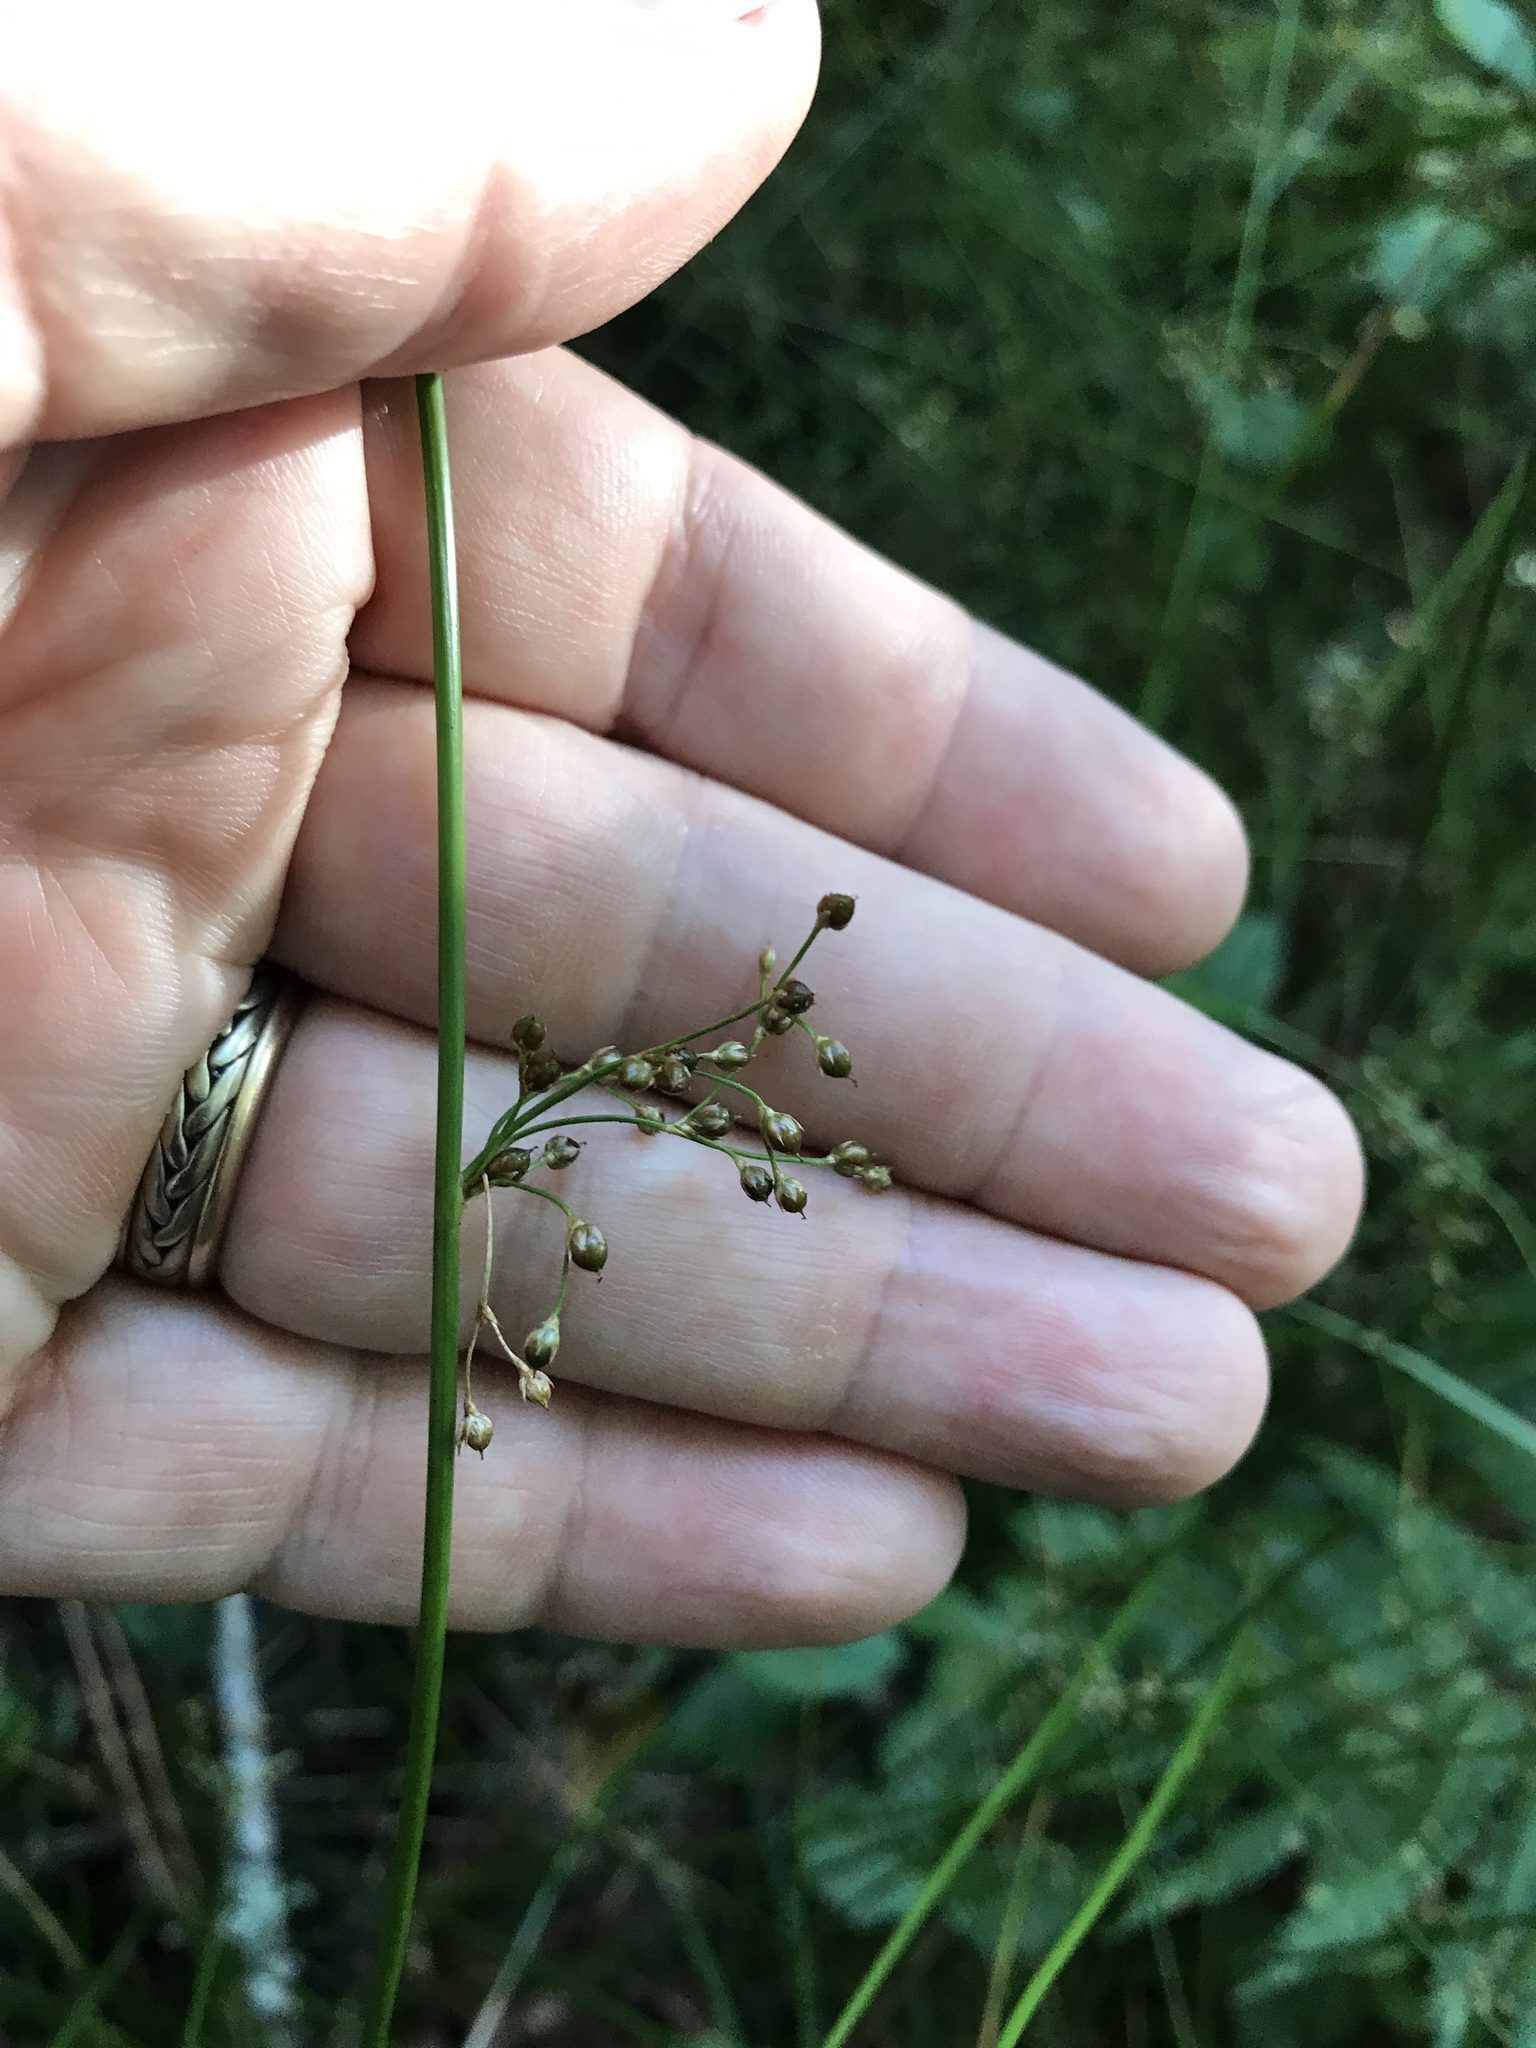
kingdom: Plantae
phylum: Tracheophyta
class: Liliopsida
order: Poales
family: Juncaceae
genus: Juncus
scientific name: Juncus gymnocarpus
